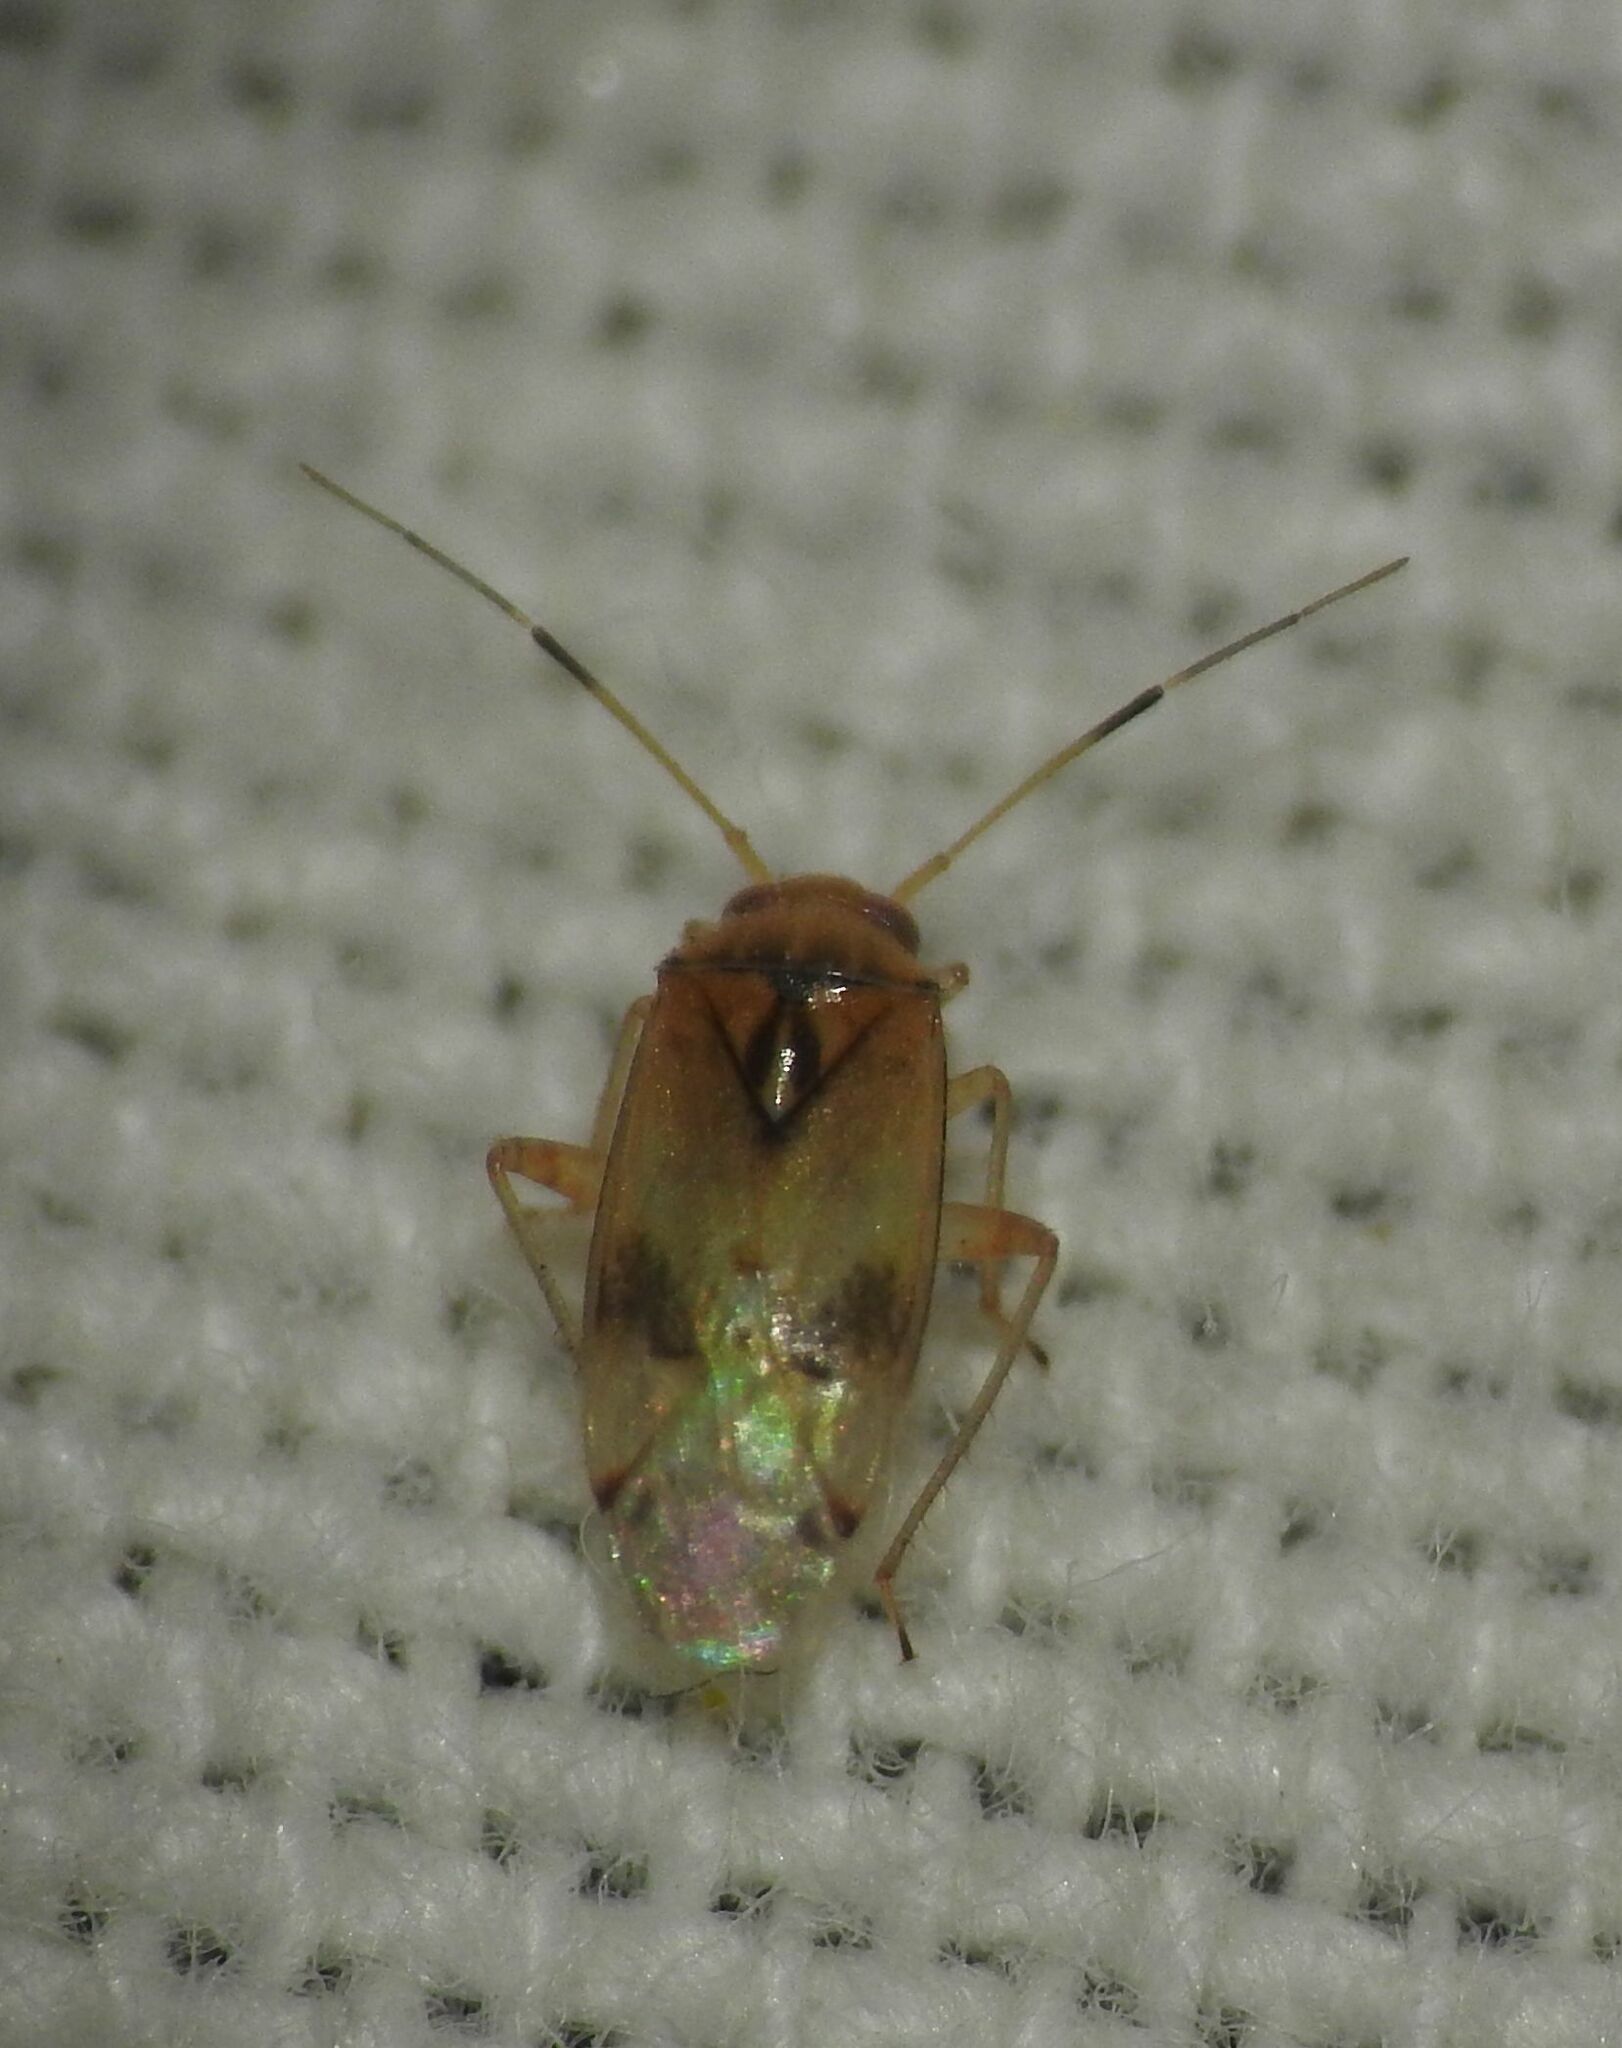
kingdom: Animalia
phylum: Arthropoda
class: Insecta
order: Hemiptera
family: Miridae
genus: Pinalitus
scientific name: Pinalitus cervinus
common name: Plant bug
